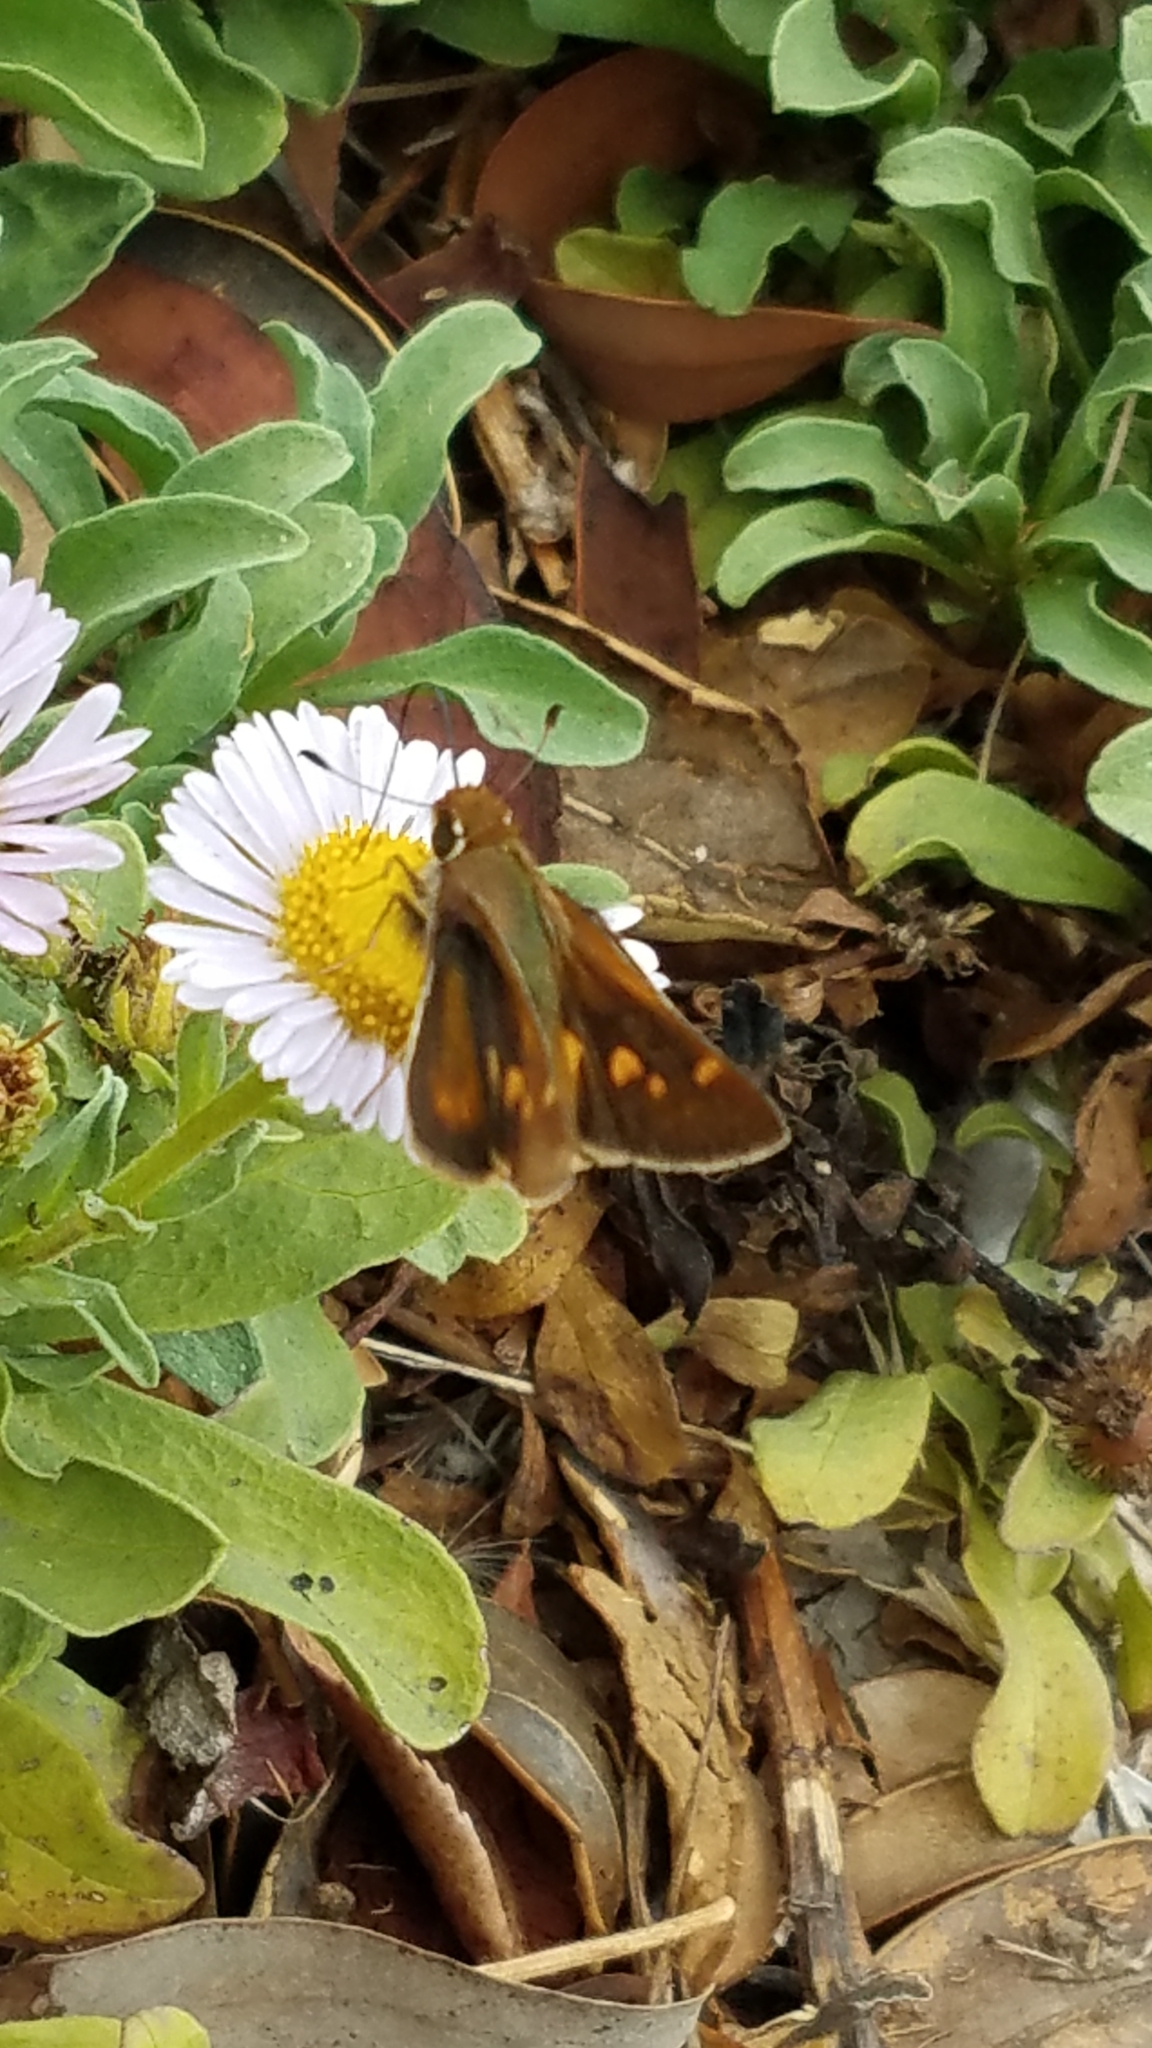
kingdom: Animalia
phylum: Arthropoda
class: Insecta
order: Lepidoptera
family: Hesperiidae
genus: Lon
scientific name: Lon melane
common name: Umber skipper
